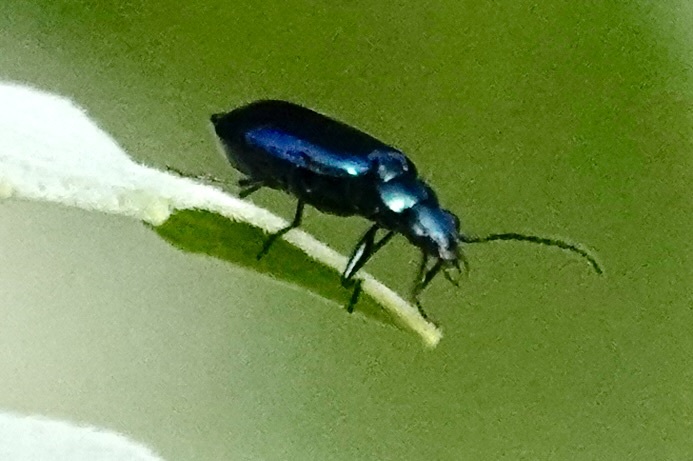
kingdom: Animalia
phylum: Arthropoda
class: Insecta
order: Coleoptera
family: Carabidae
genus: Lebia
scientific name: Lebia viridis
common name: Flower lebia beetle
